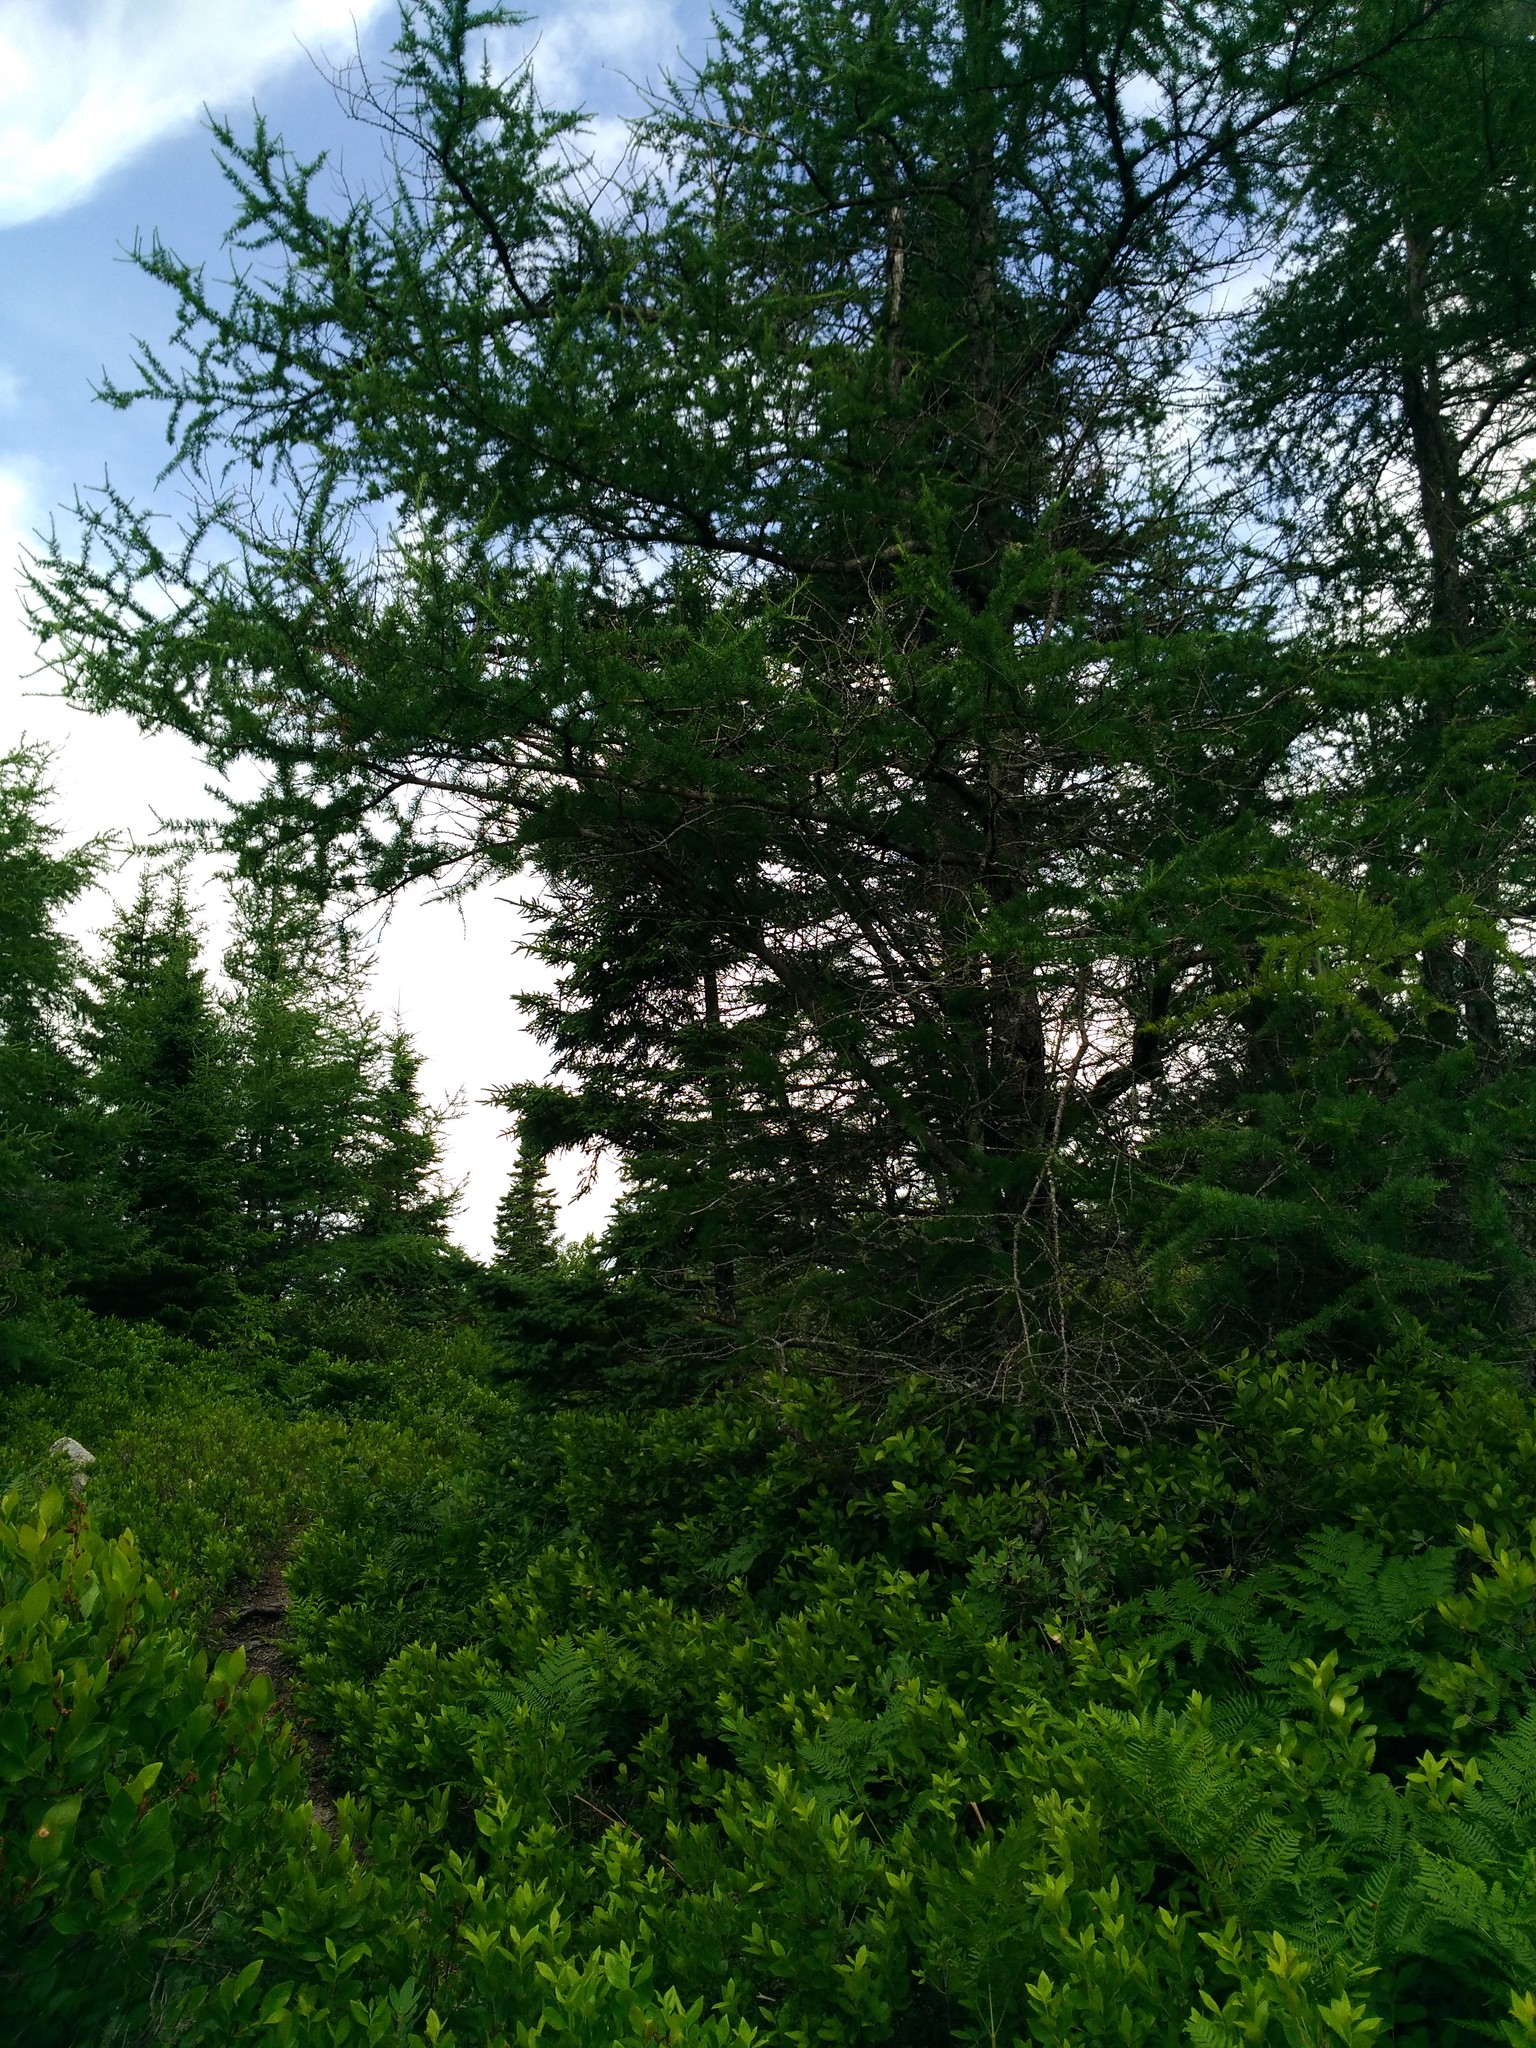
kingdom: Plantae
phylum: Tracheophyta
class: Pinopsida
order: Pinales
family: Pinaceae
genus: Larix
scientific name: Larix laricina
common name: American larch
